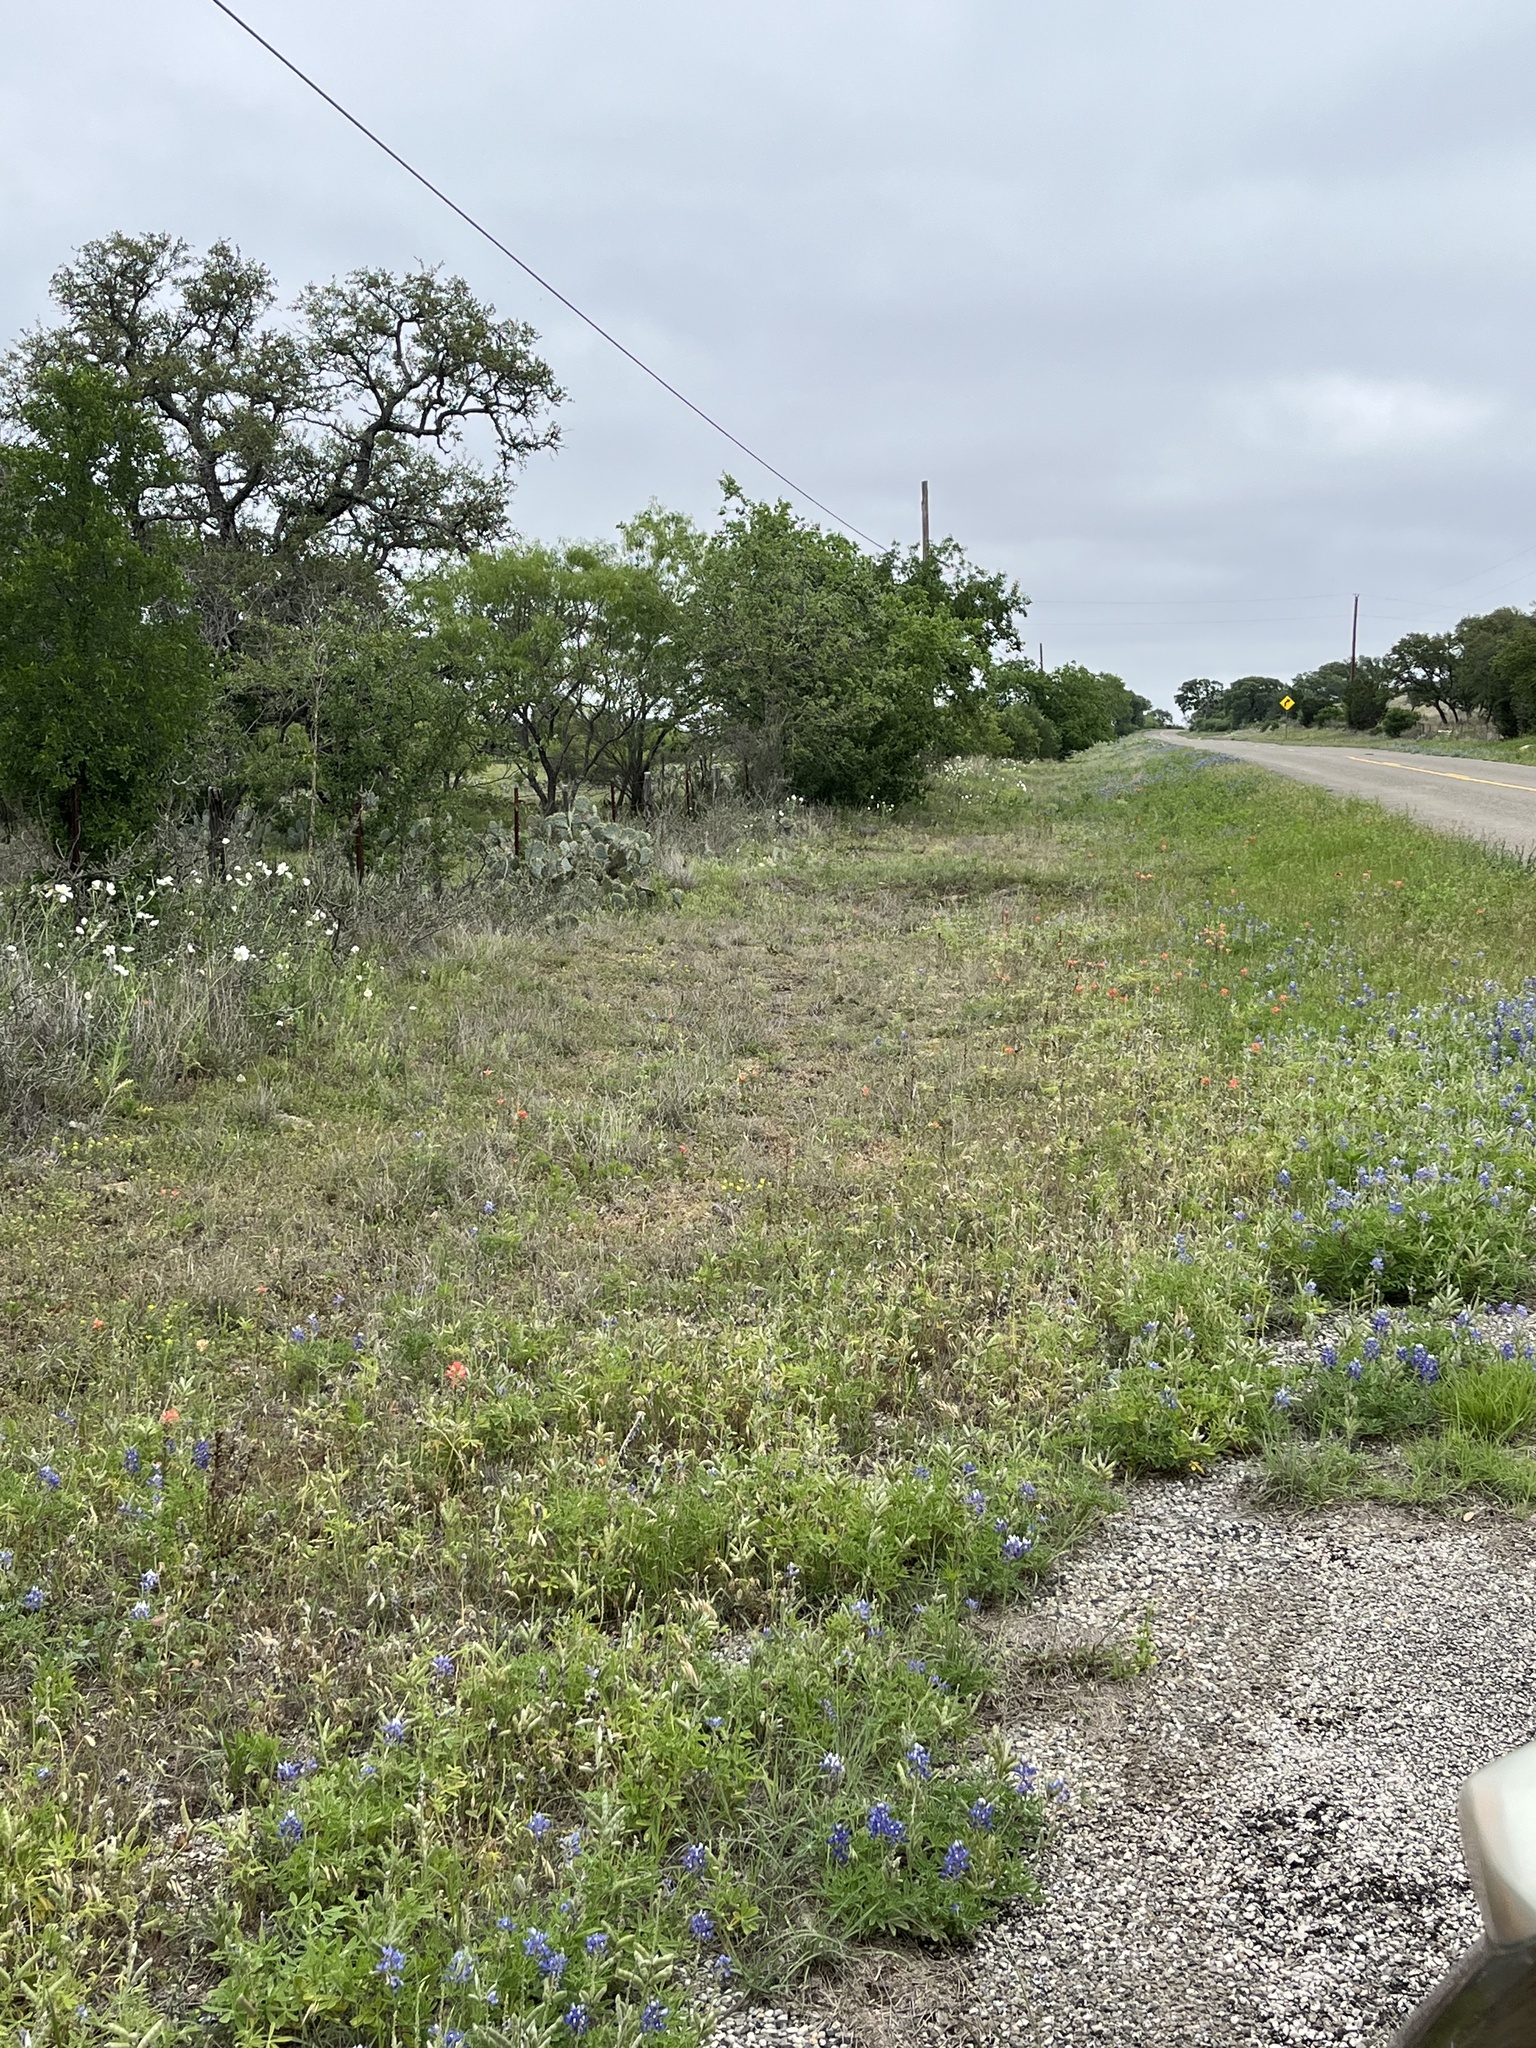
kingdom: Plantae
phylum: Tracheophyta
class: Magnoliopsida
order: Fabales
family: Fabaceae
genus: Lupinus
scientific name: Lupinus texensis
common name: Texas bluebonnet
